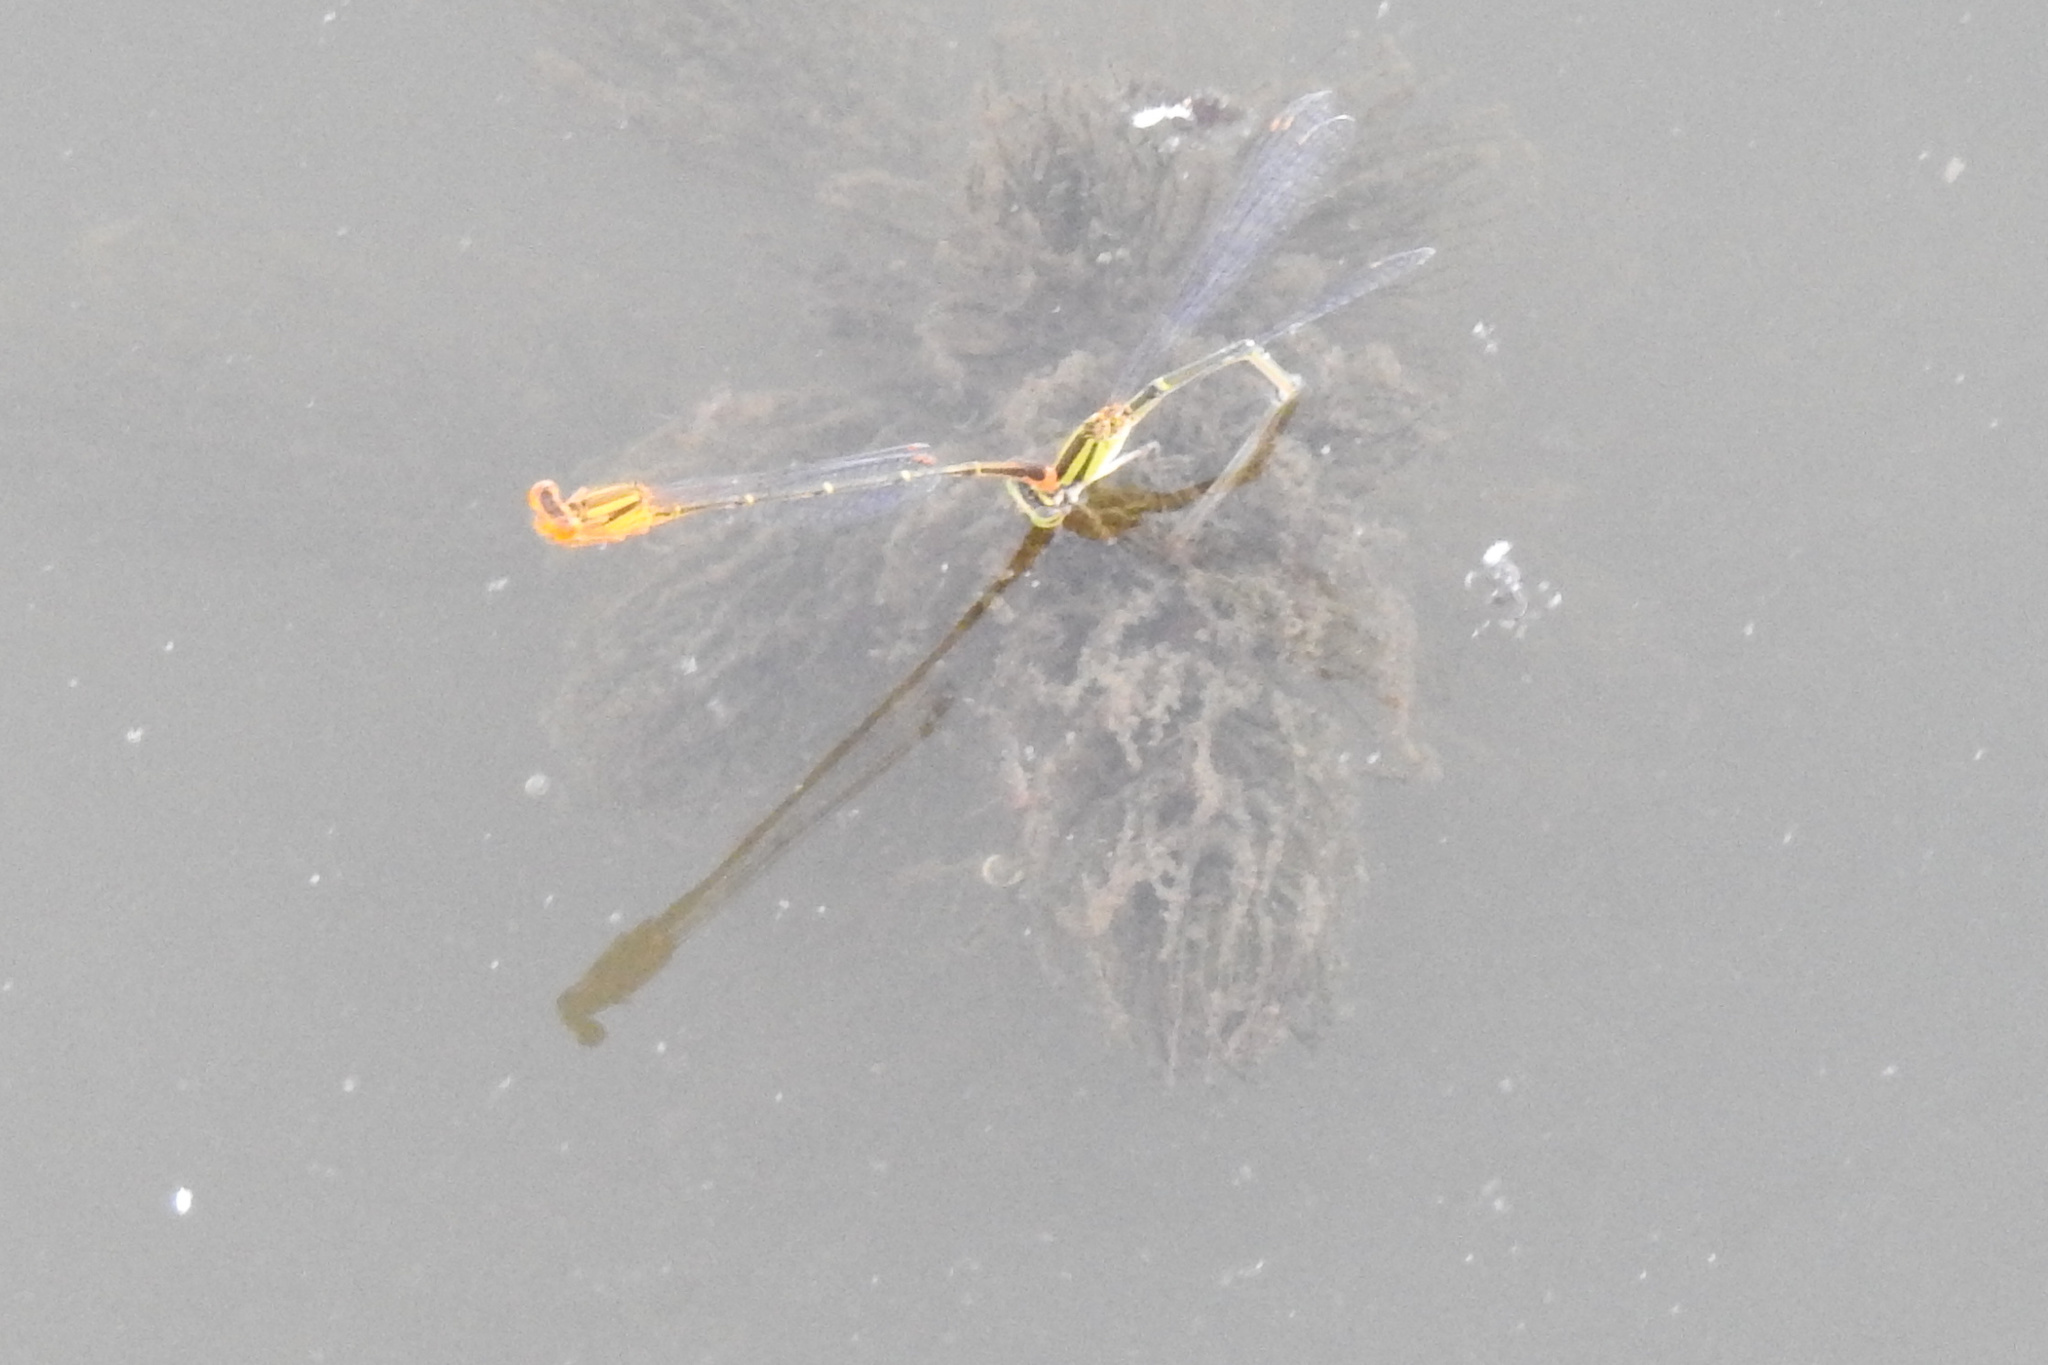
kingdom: Animalia
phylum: Arthropoda
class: Insecta
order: Odonata
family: Coenagrionidae
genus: Enallagma
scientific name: Enallagma signatum
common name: Orange bluet
